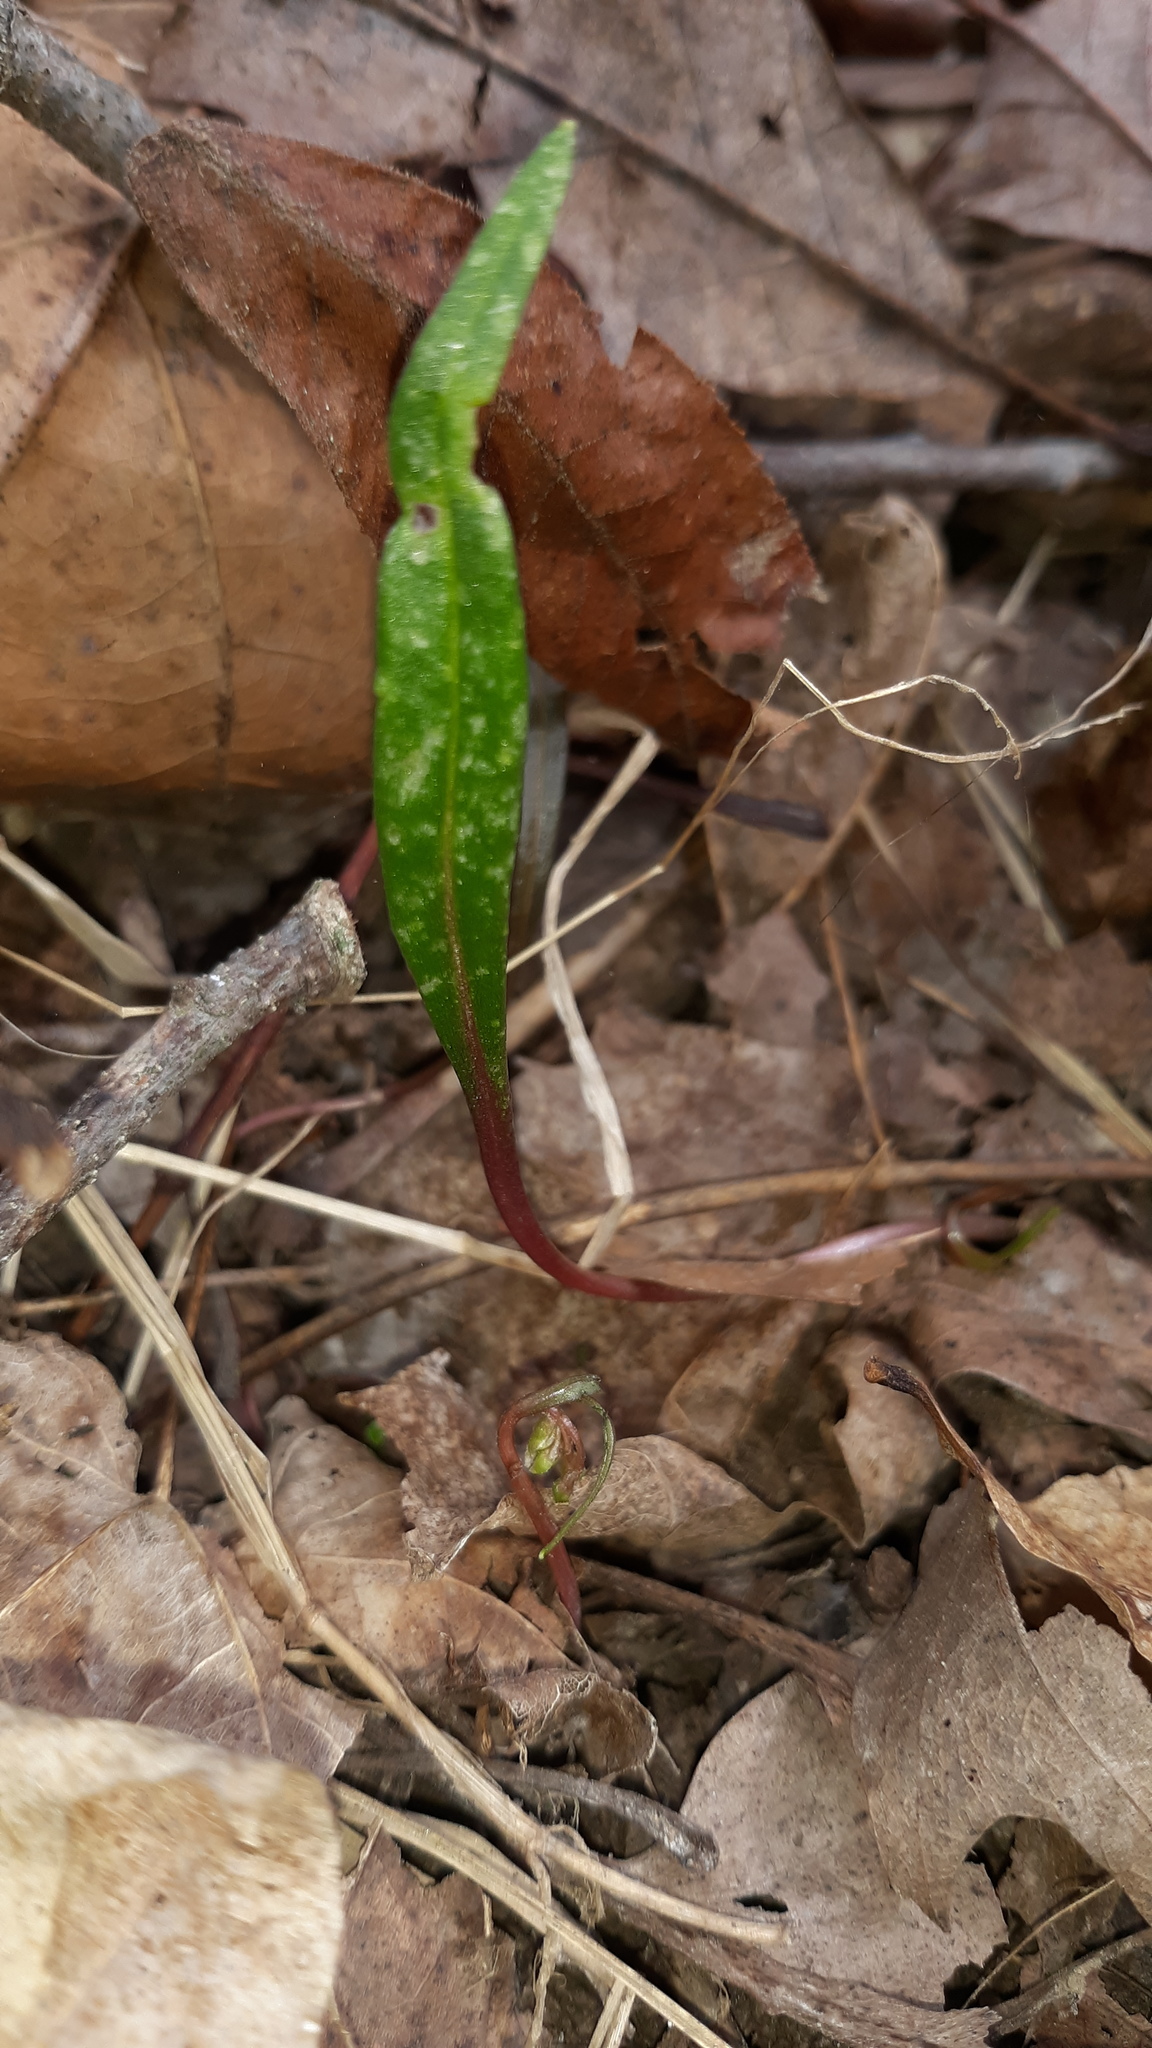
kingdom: Plantae
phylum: Tracheophyta
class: Magnoliopsida
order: Caryophyllales
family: Montiaceae
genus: Claytonia
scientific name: Claytonia virginica
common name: Virginia springbeauty
